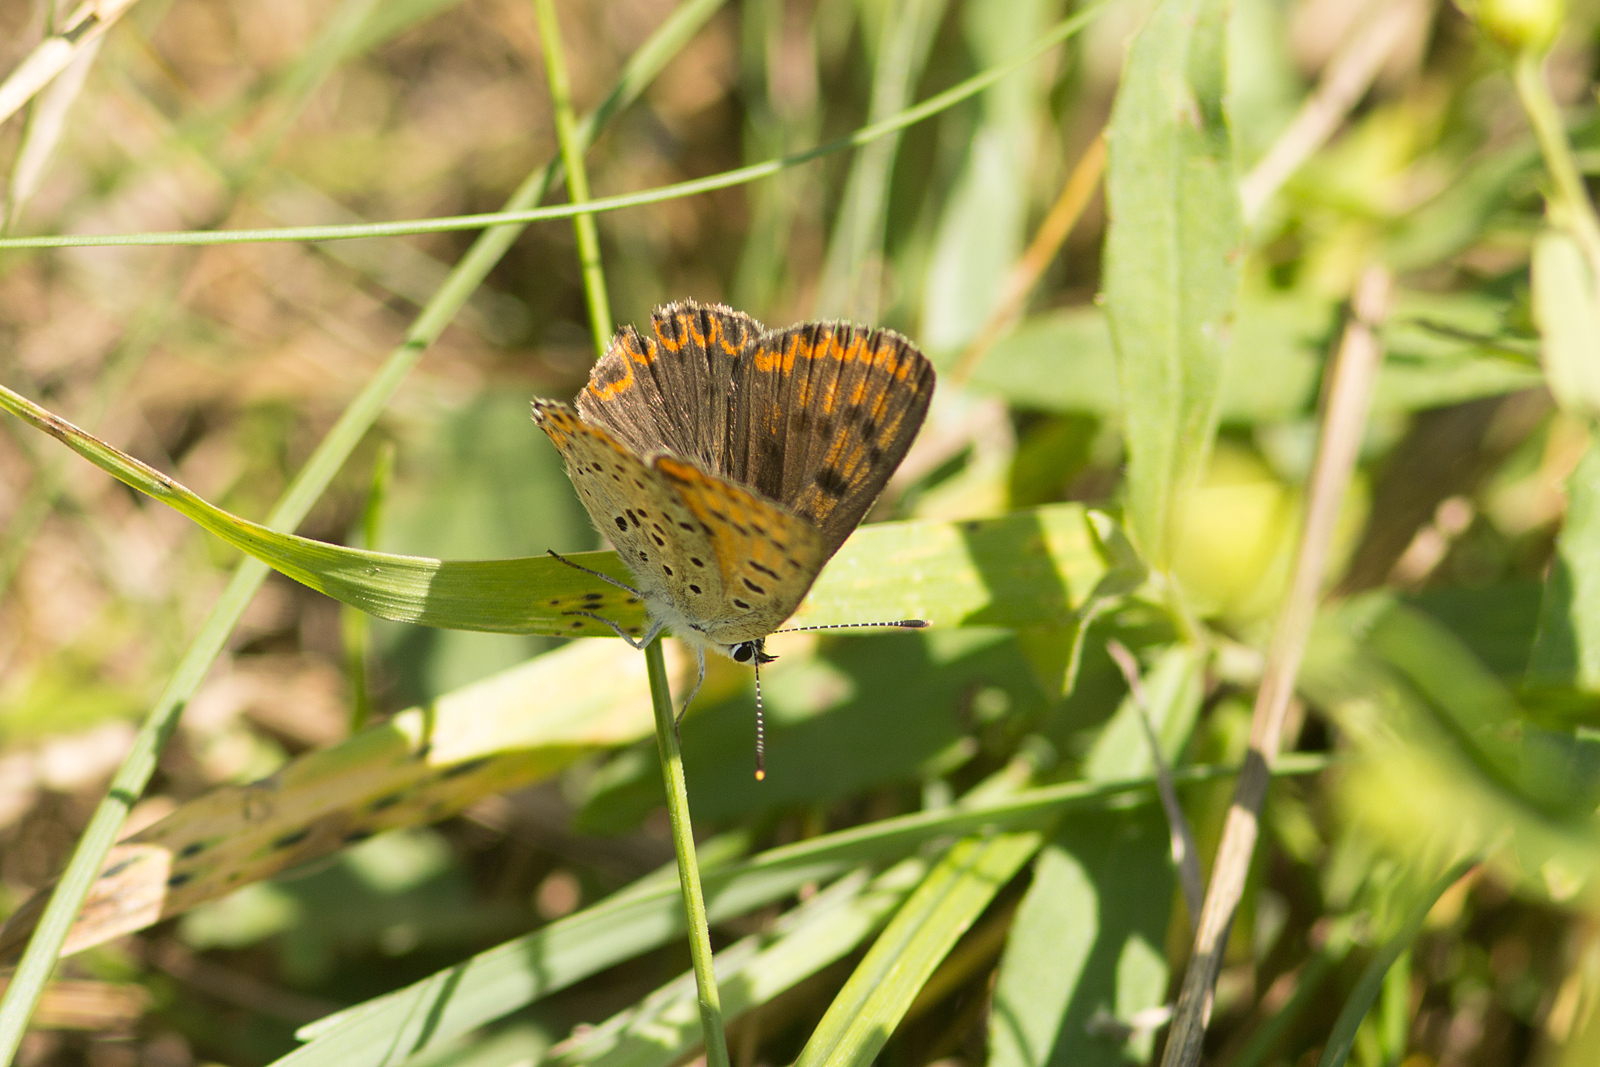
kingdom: Animalia
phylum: Arthropoda
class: Insecta
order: Lepidoptera
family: Lycaenidae
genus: Loweia
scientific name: Loweia tityrus
